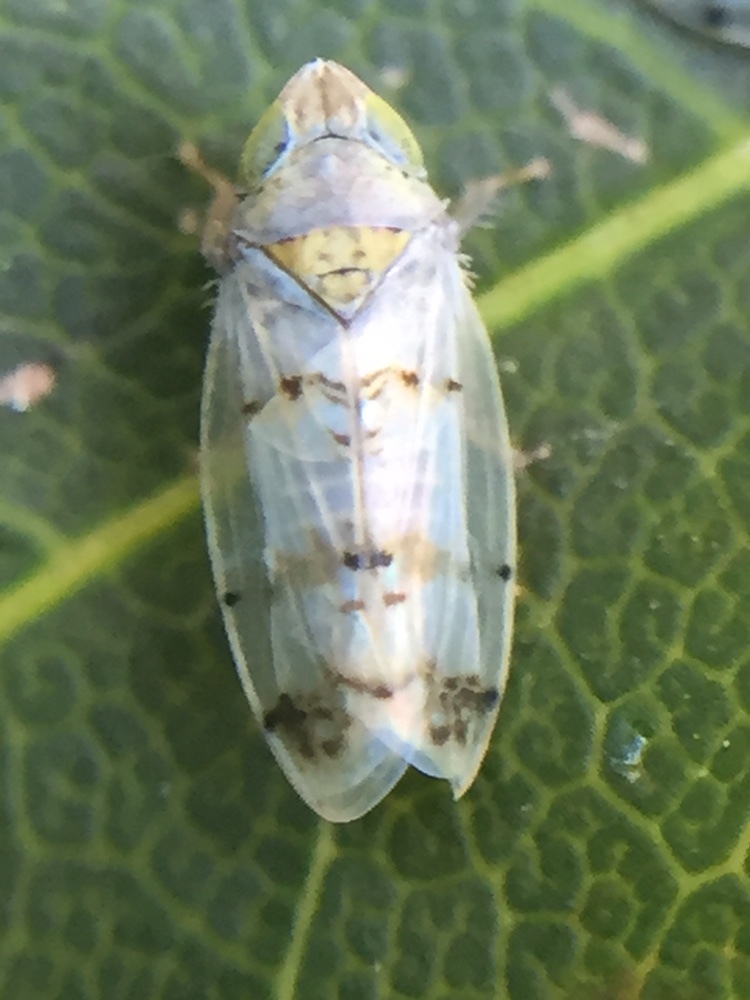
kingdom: Animalia
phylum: Arthropoda
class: Insecta
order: Hemiptera
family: Cicadellidae
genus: Japananus
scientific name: Japananus hyalinus
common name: The japanese maple leafhopper
